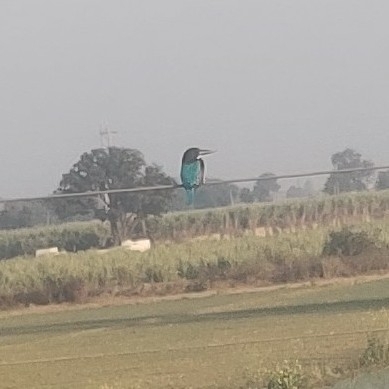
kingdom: Animalia
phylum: Chordata
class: Aves
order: Coraciiformes
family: Alcedinidae
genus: Halcyon
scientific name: Halcyon smyrnensis
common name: White-throated kingfisher
